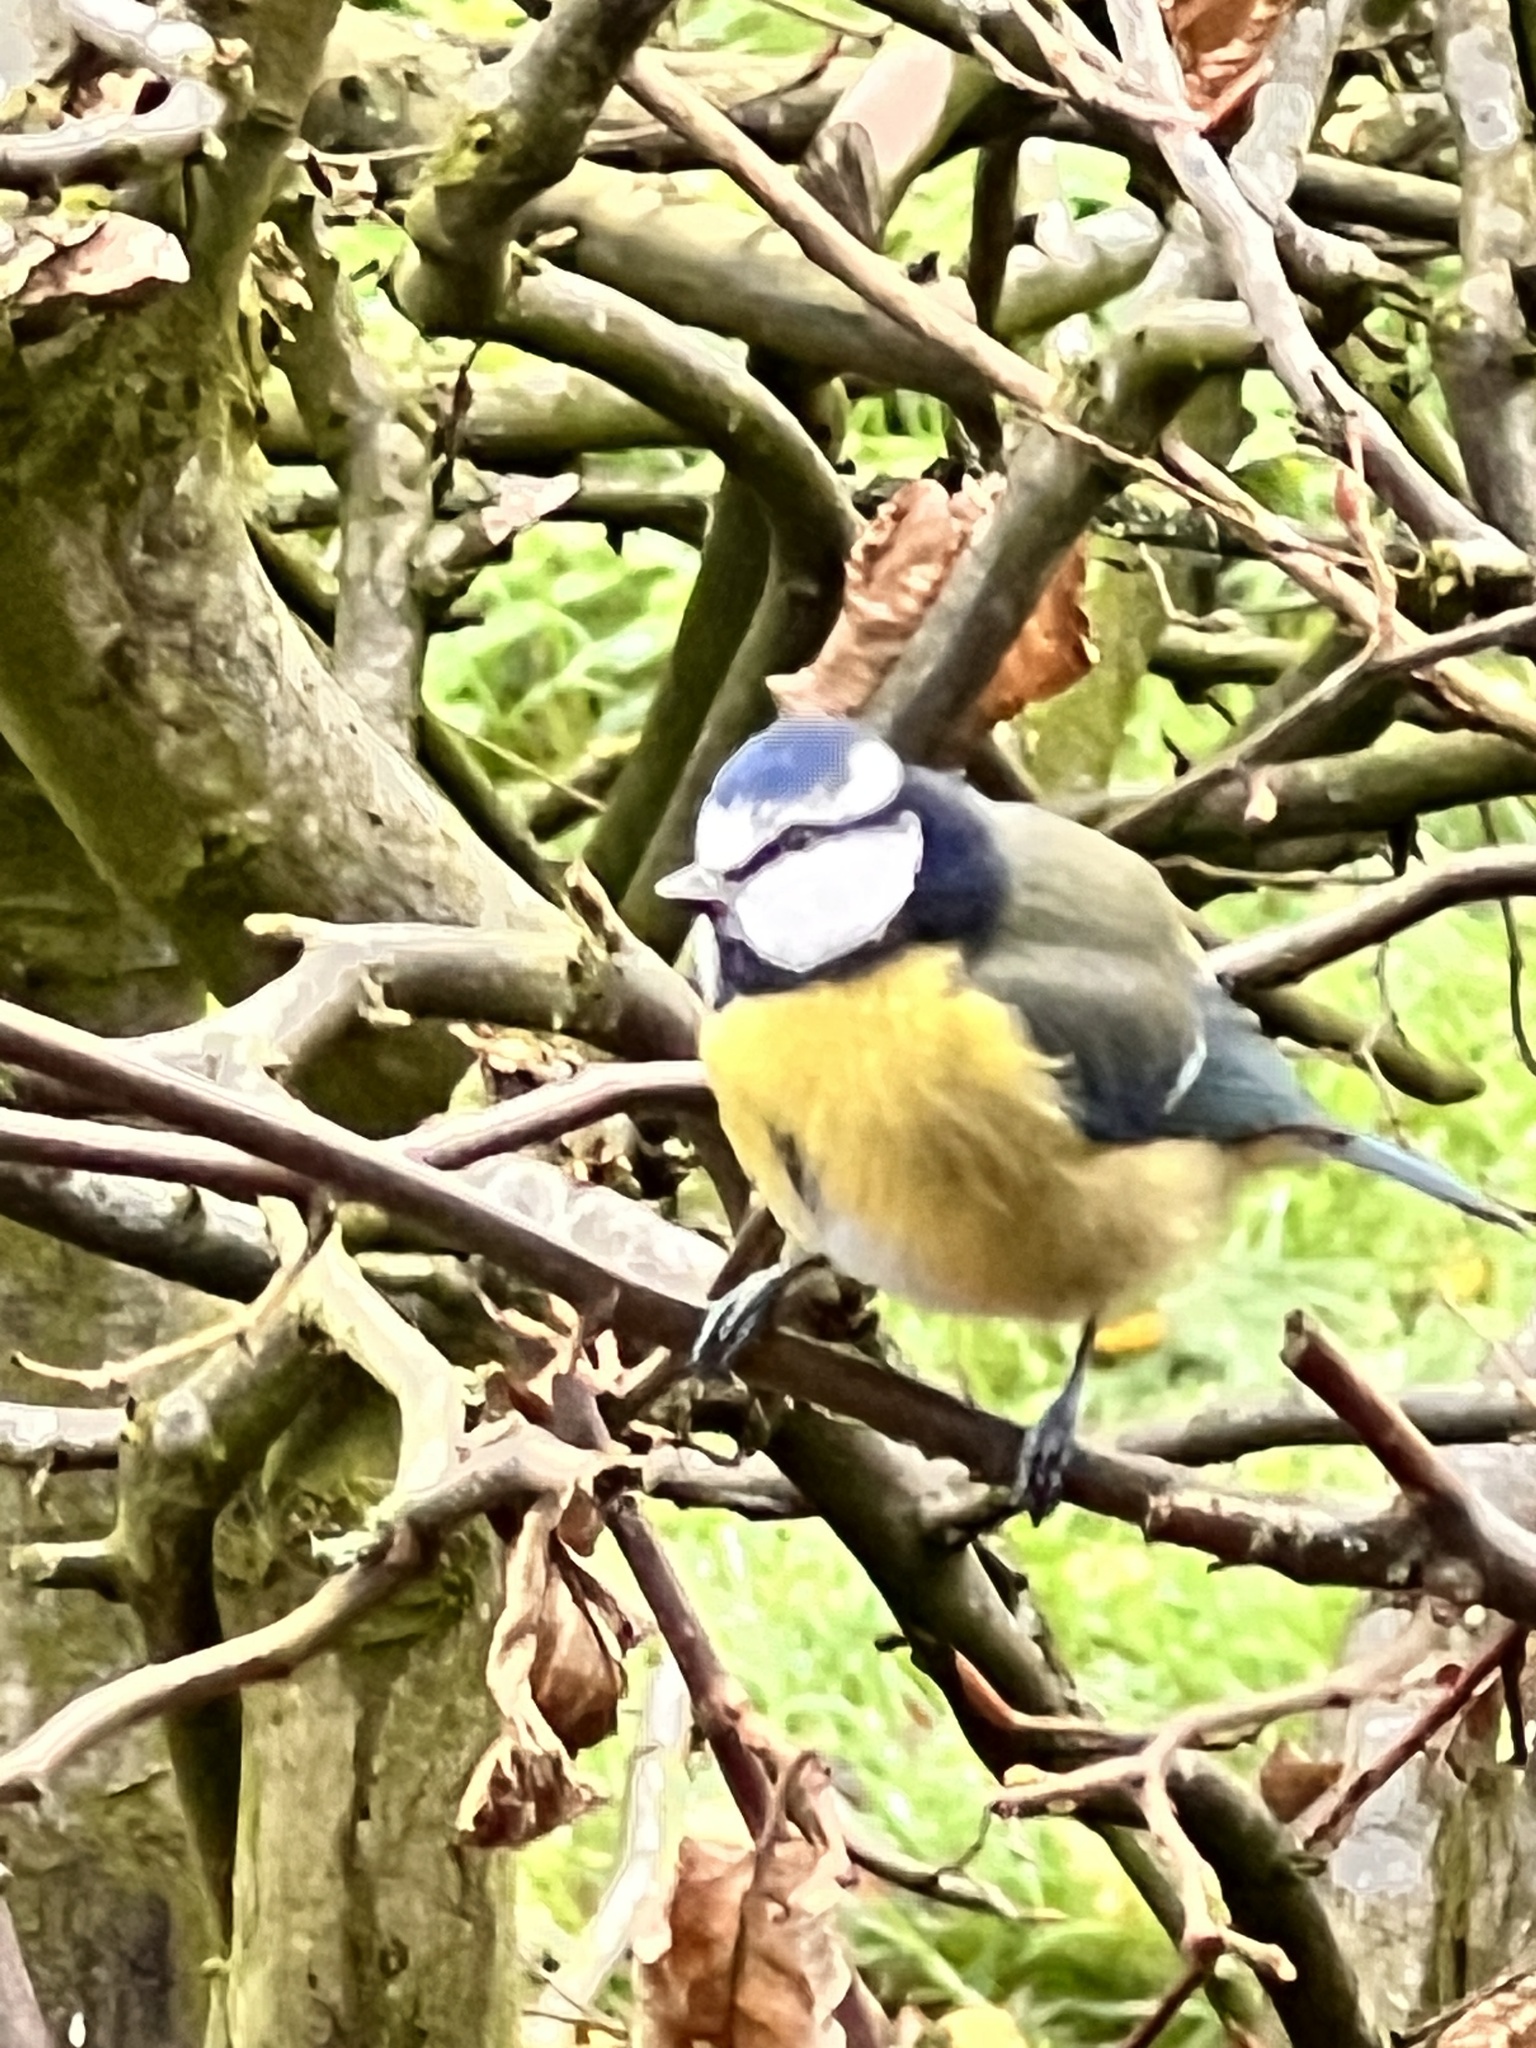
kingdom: Animalia
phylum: Chordata
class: Aves
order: Passeriformes
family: Paridae
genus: Cyanistes
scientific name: Cyanistes caeruleus
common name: Eurasian blue tit
